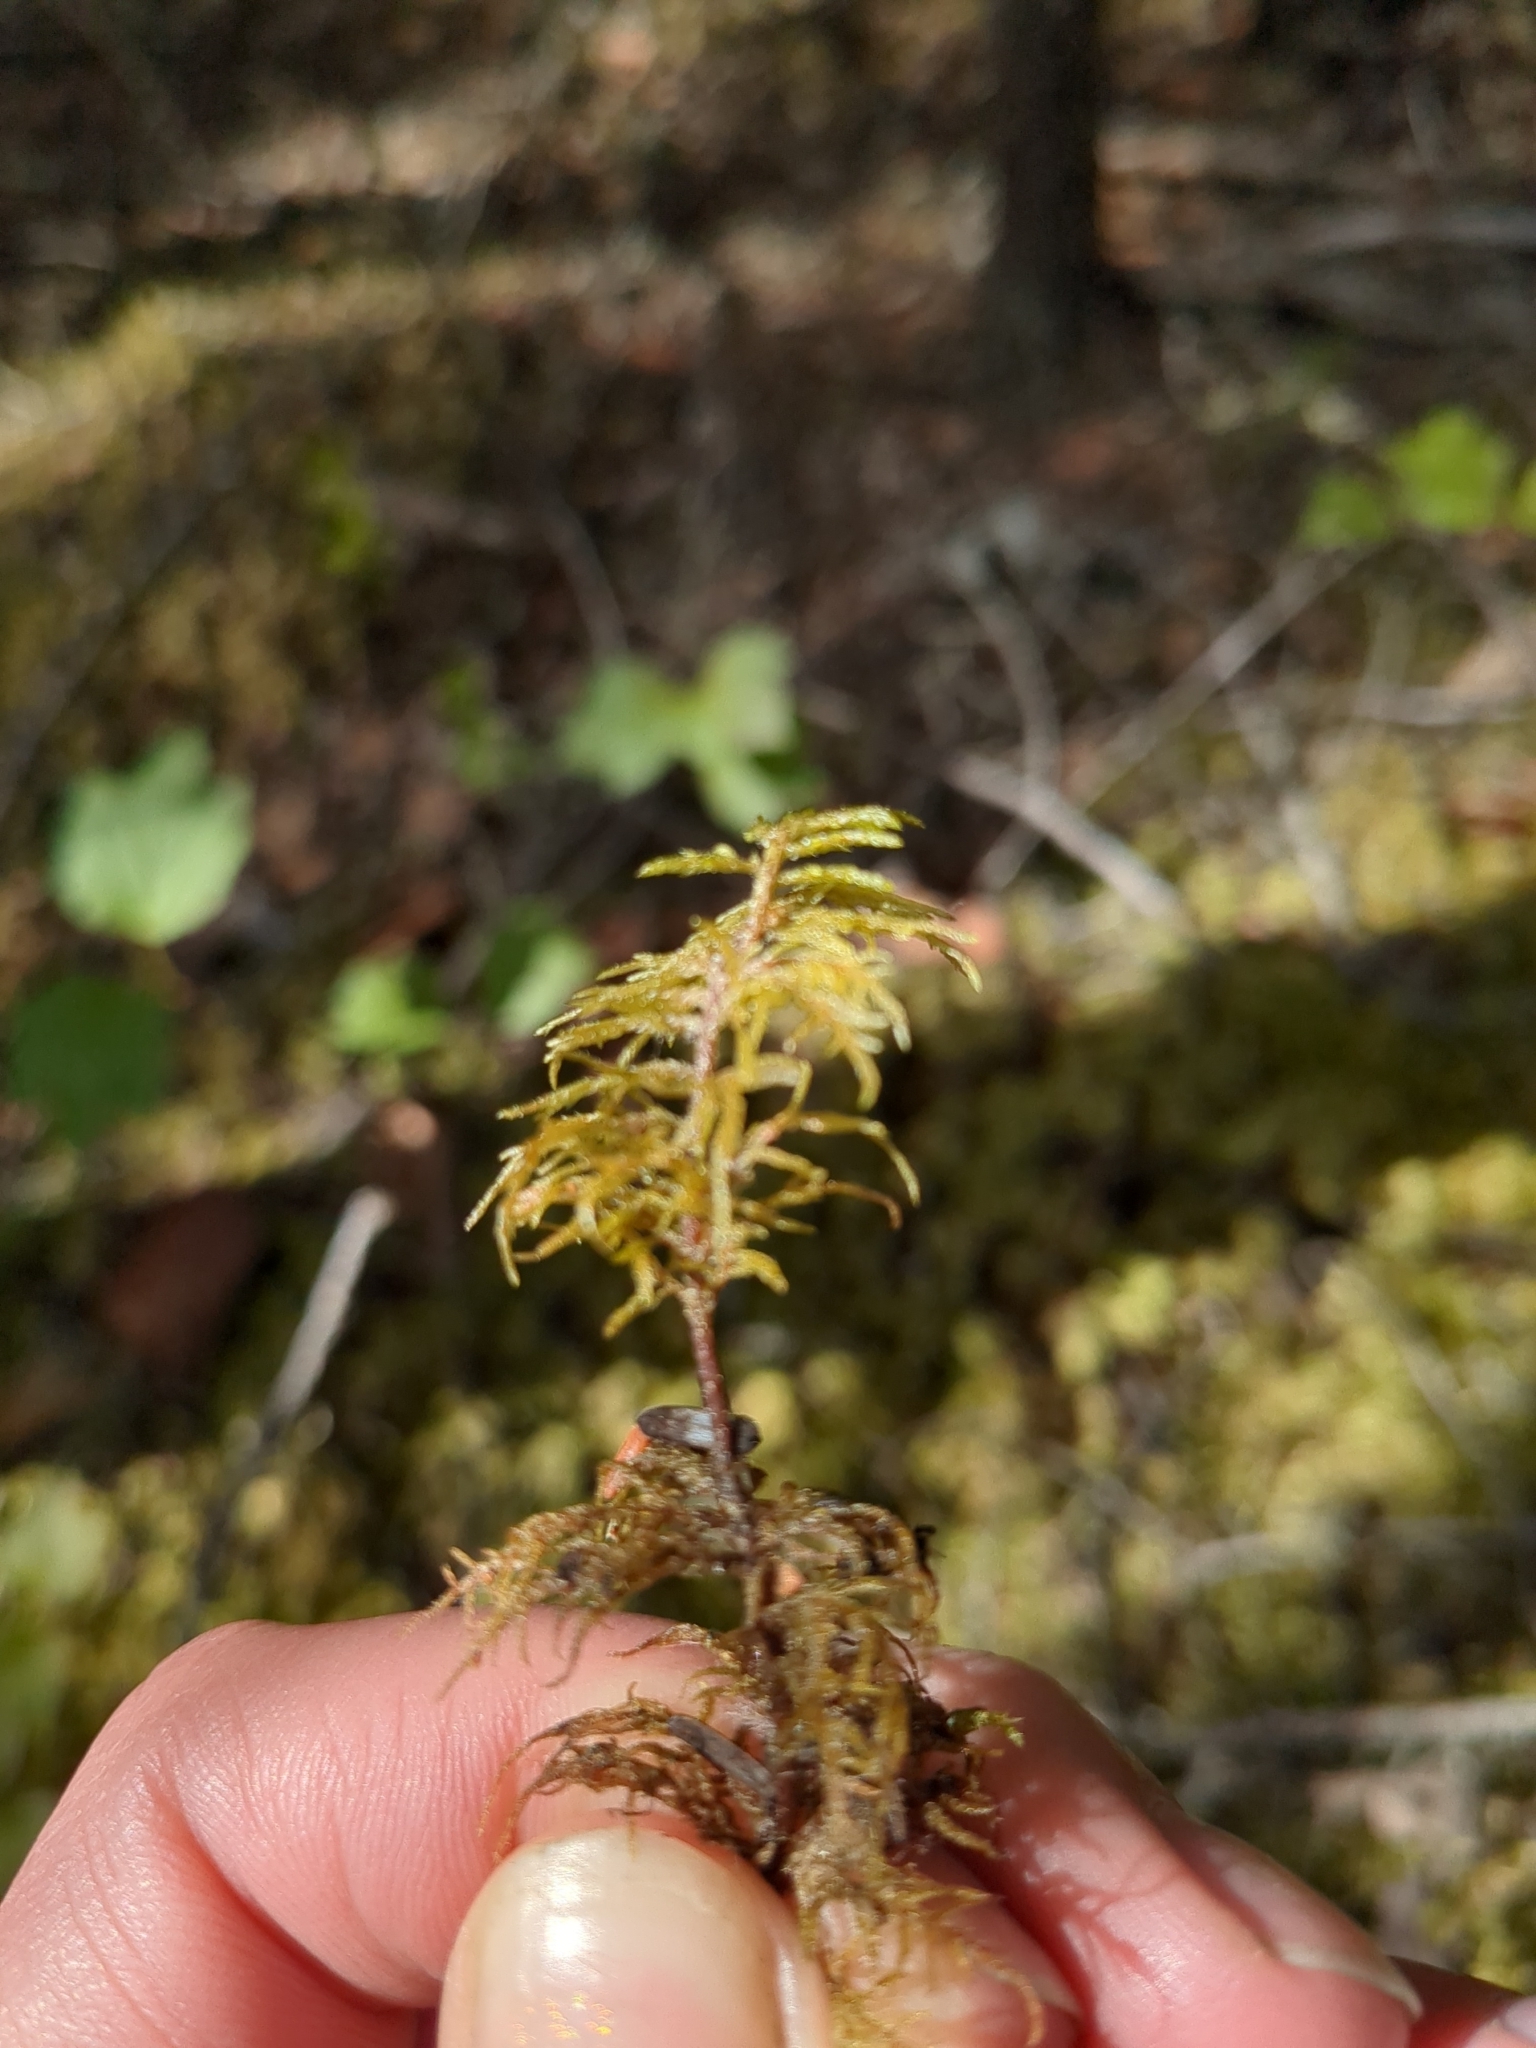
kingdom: Plantae
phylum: Bryophyta
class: Bryopsida
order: Hypnales
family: Hylocomiaceae
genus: Hylocomium
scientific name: Hylocomium splendens
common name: Stairstep moss
